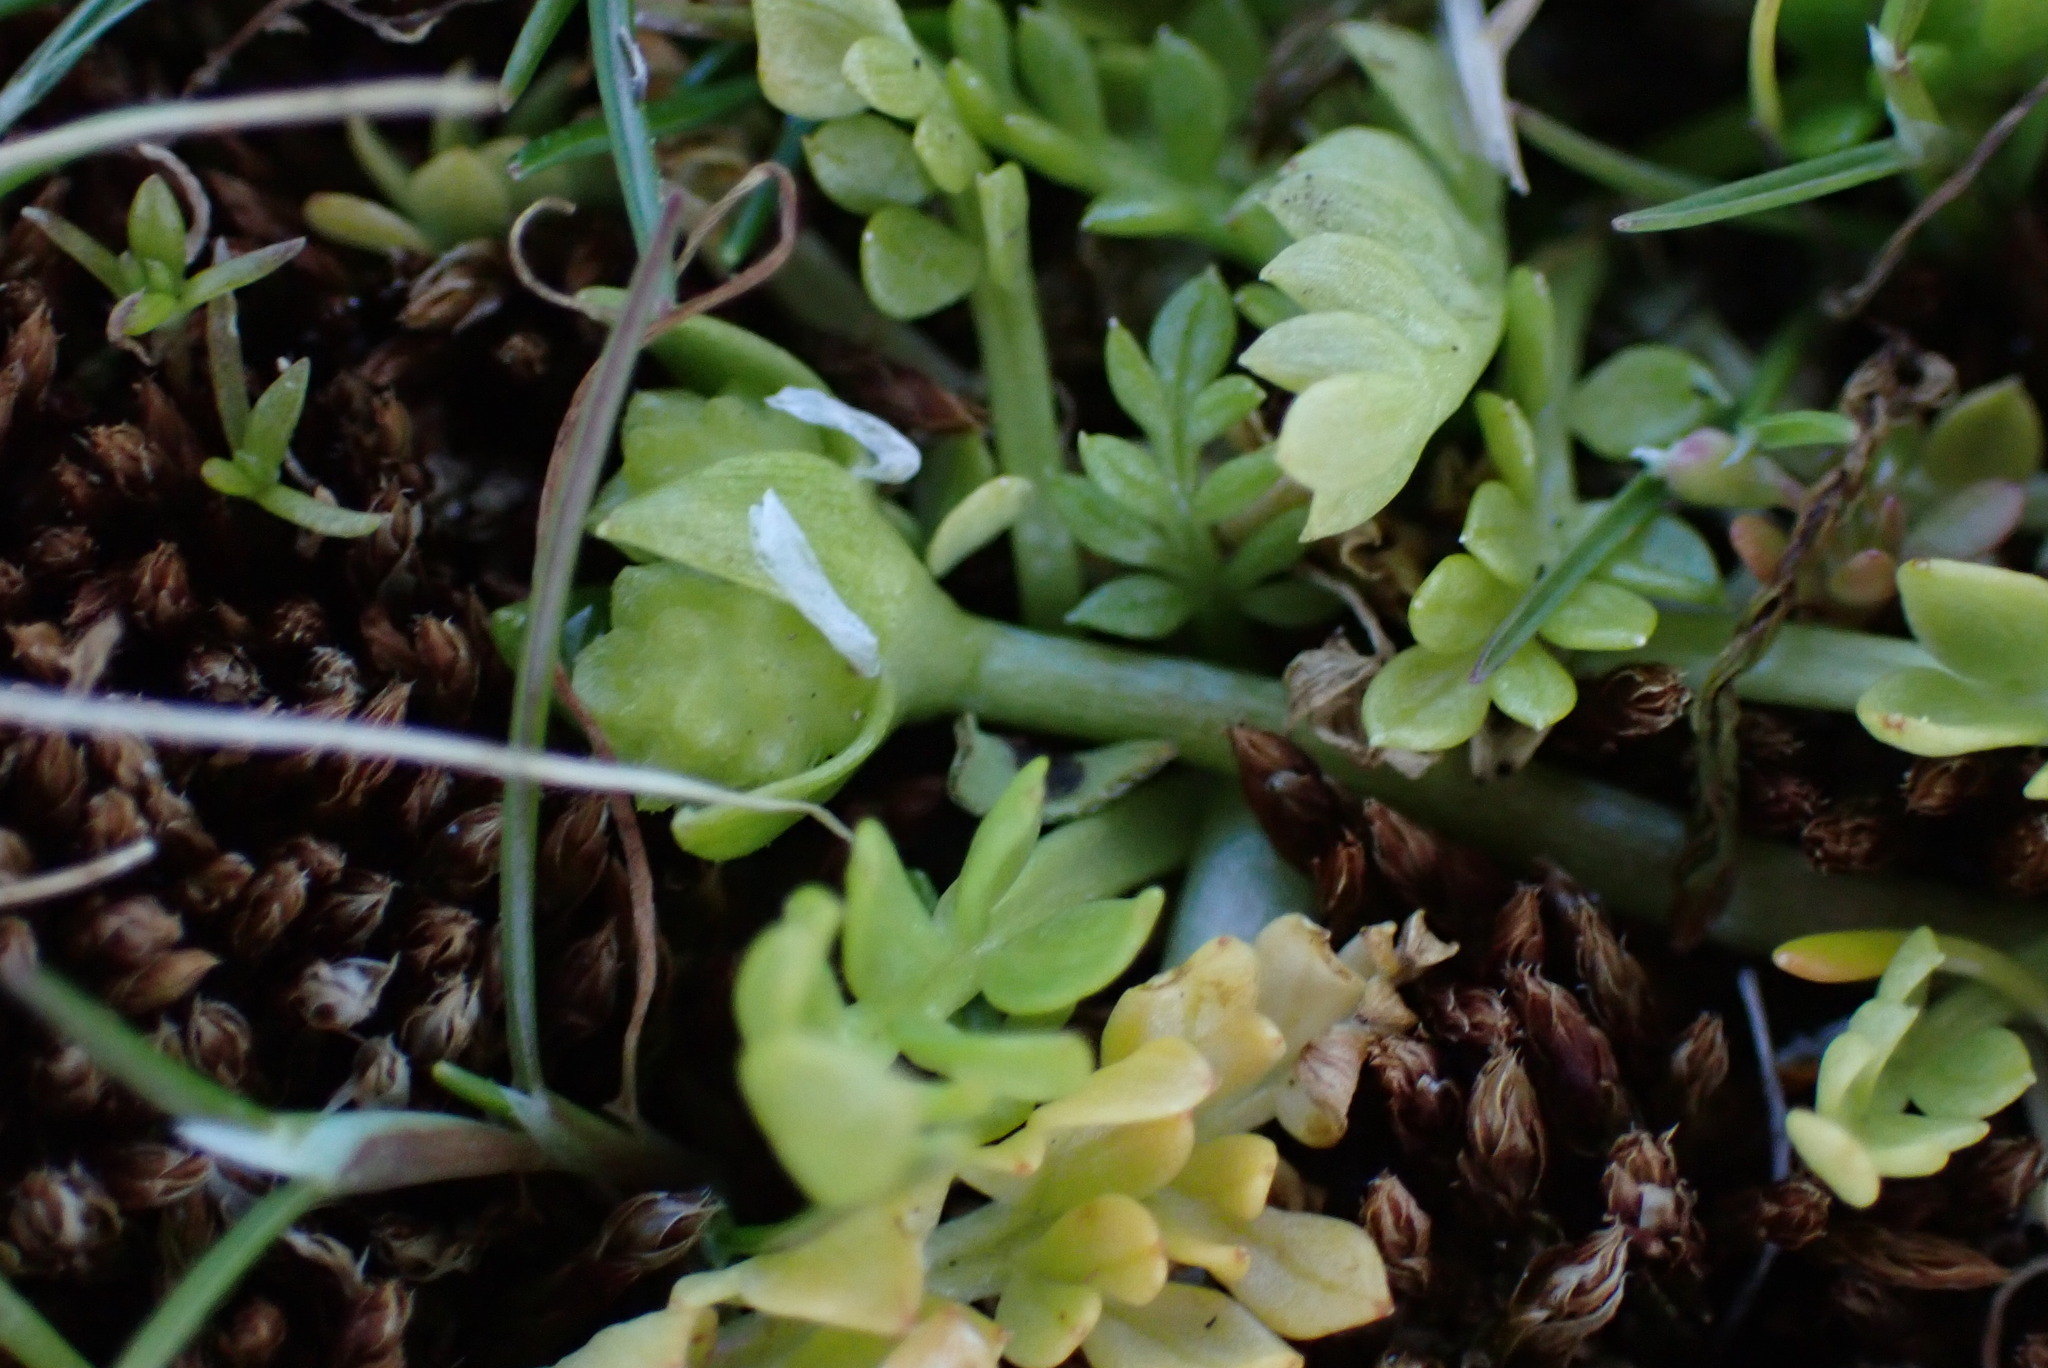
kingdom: Plantae
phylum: Tracheophyta
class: Magnoliopsida
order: Brassicales
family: Limnanthaceae
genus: Limnanthes
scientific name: Limnanthes macounii
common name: Macoun's meadowfoam
